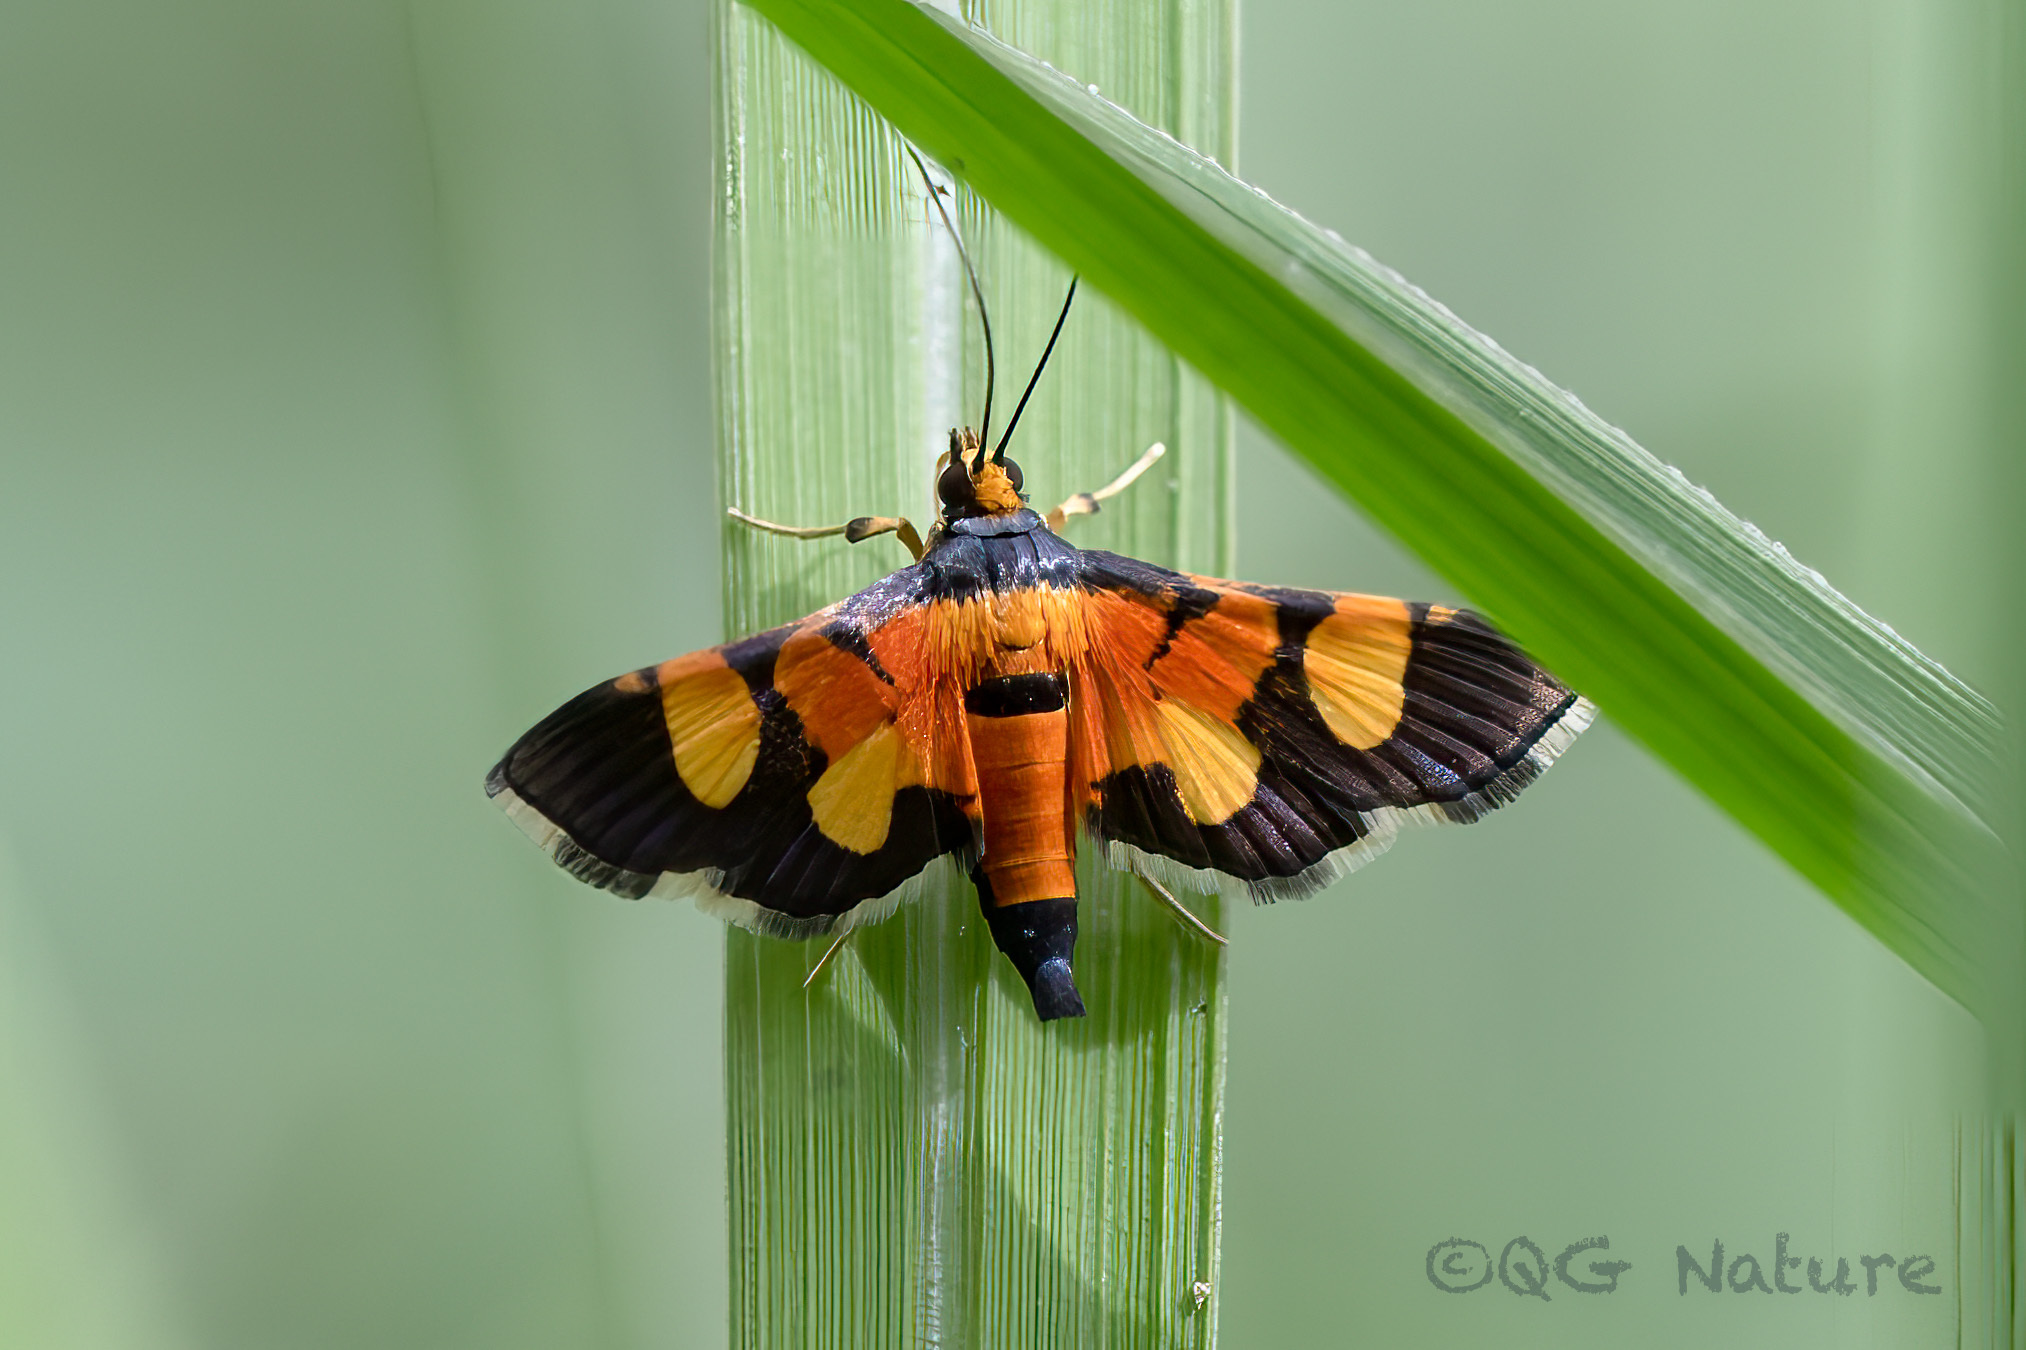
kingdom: Animalia
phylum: Arthropoda
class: Insecta
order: Lepidoptera
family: Crambidae
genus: Aethaloessa
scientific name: Aethaloessa calidalis
